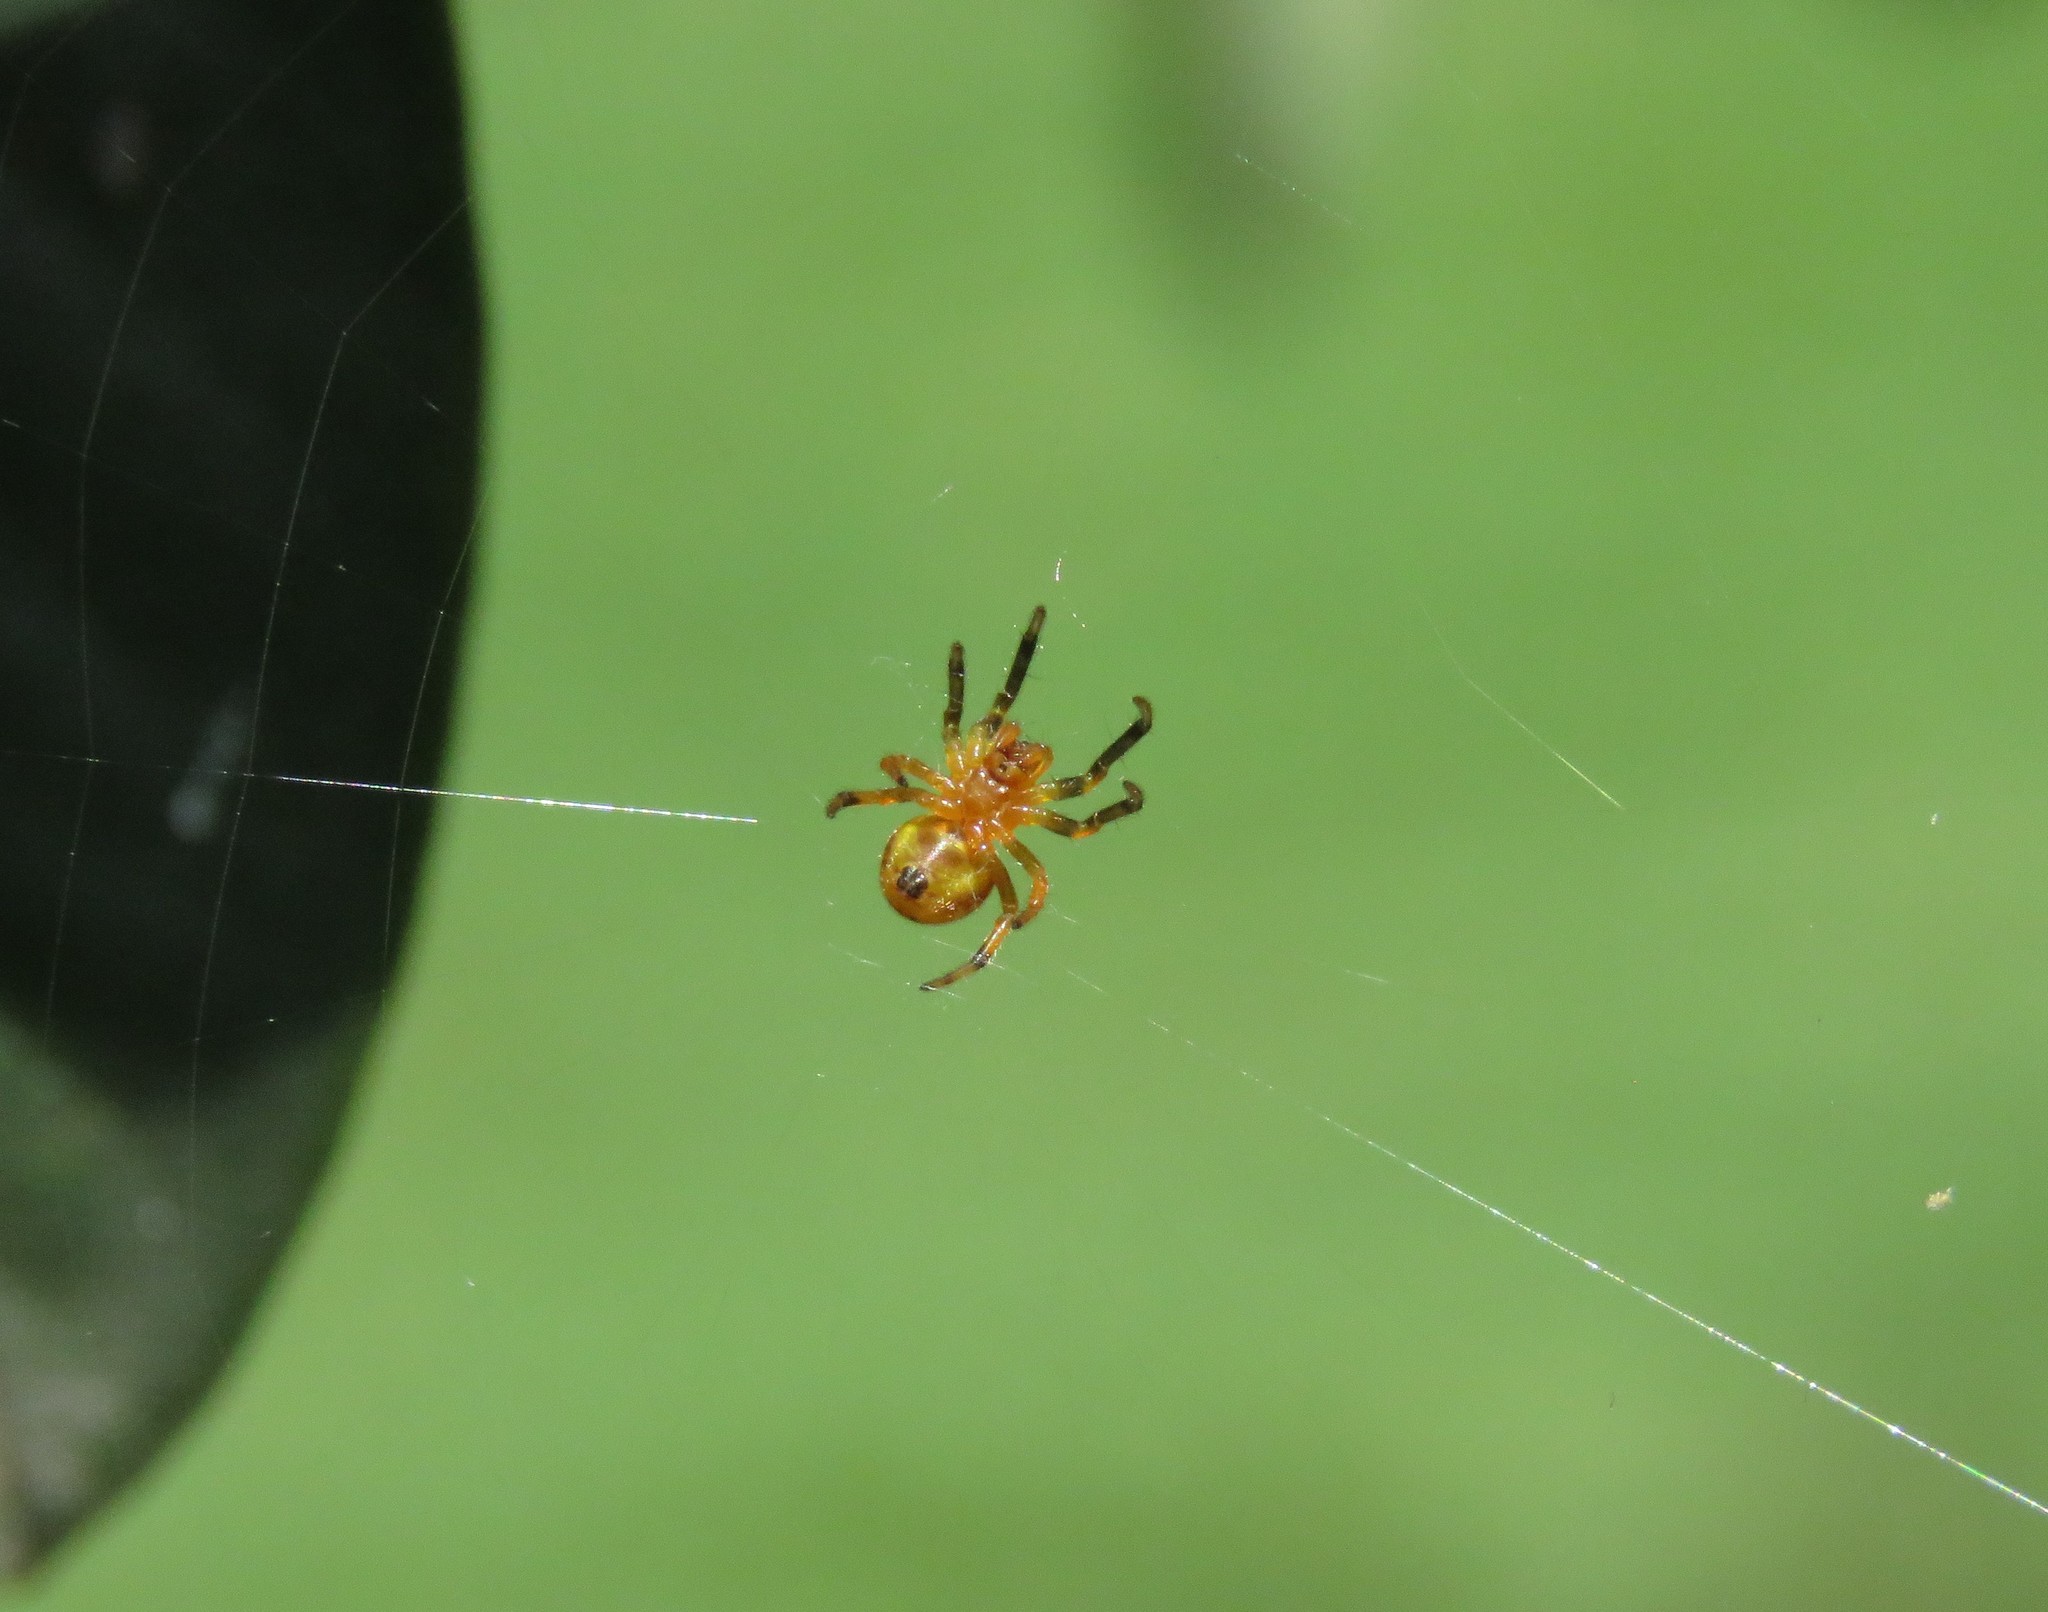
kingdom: Animalia
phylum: Arthropoda
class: Arachnida
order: Araneae
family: Araneidae
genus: Araneus
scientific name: Araneus bogotensis
